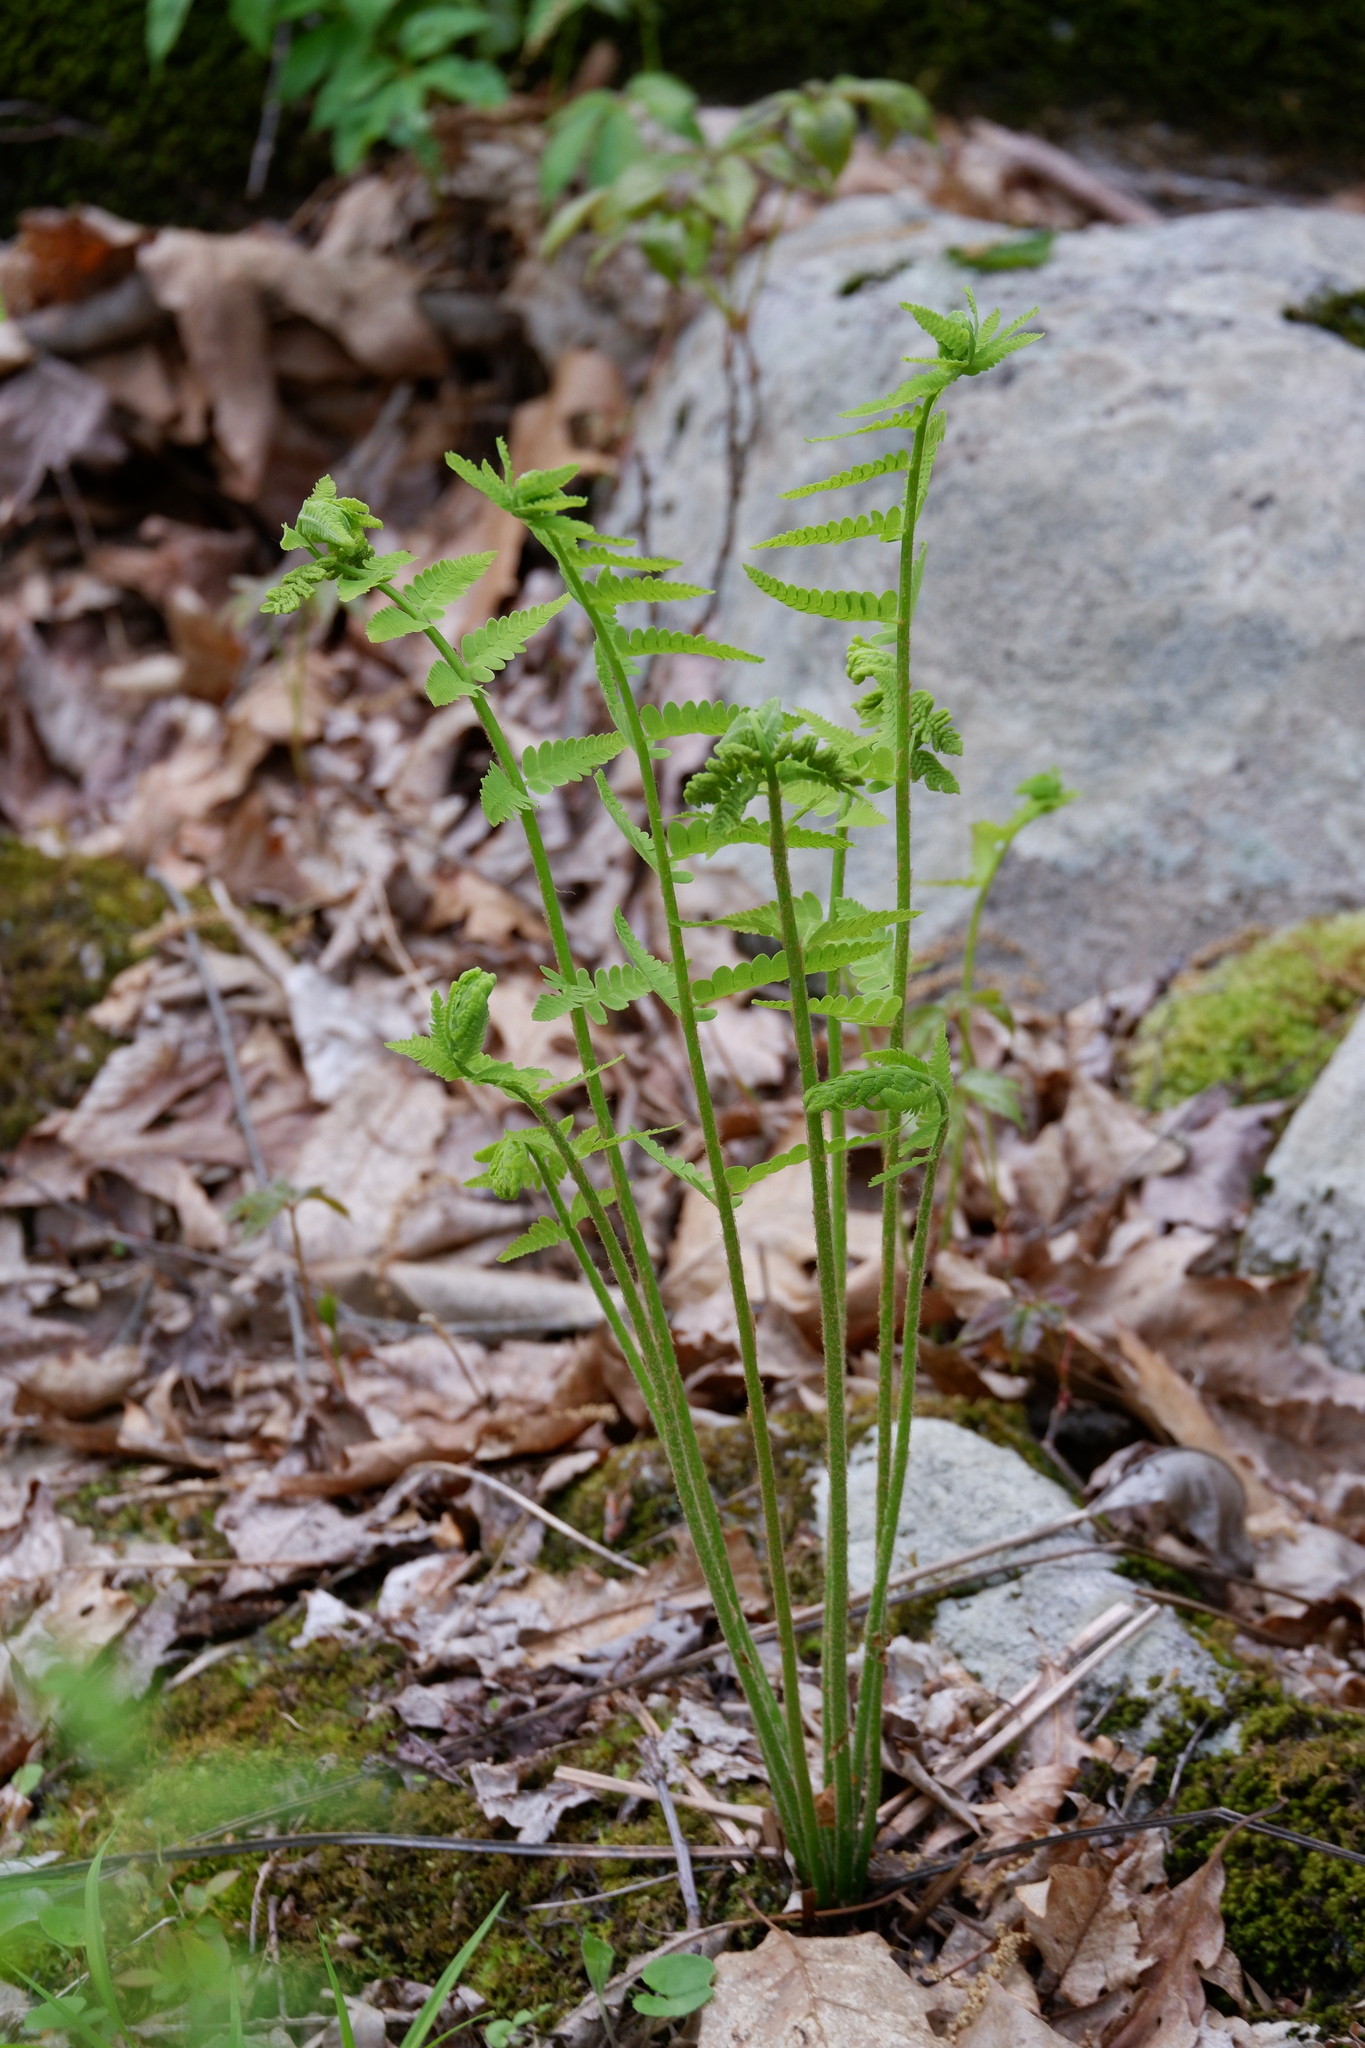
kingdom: Plantae
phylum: Tracheophyta
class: Polypodiopsida
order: Osmundales
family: Osmundaceae
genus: Claytosmunda
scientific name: Claytosmunda claytoniana
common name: Clayton's fern
